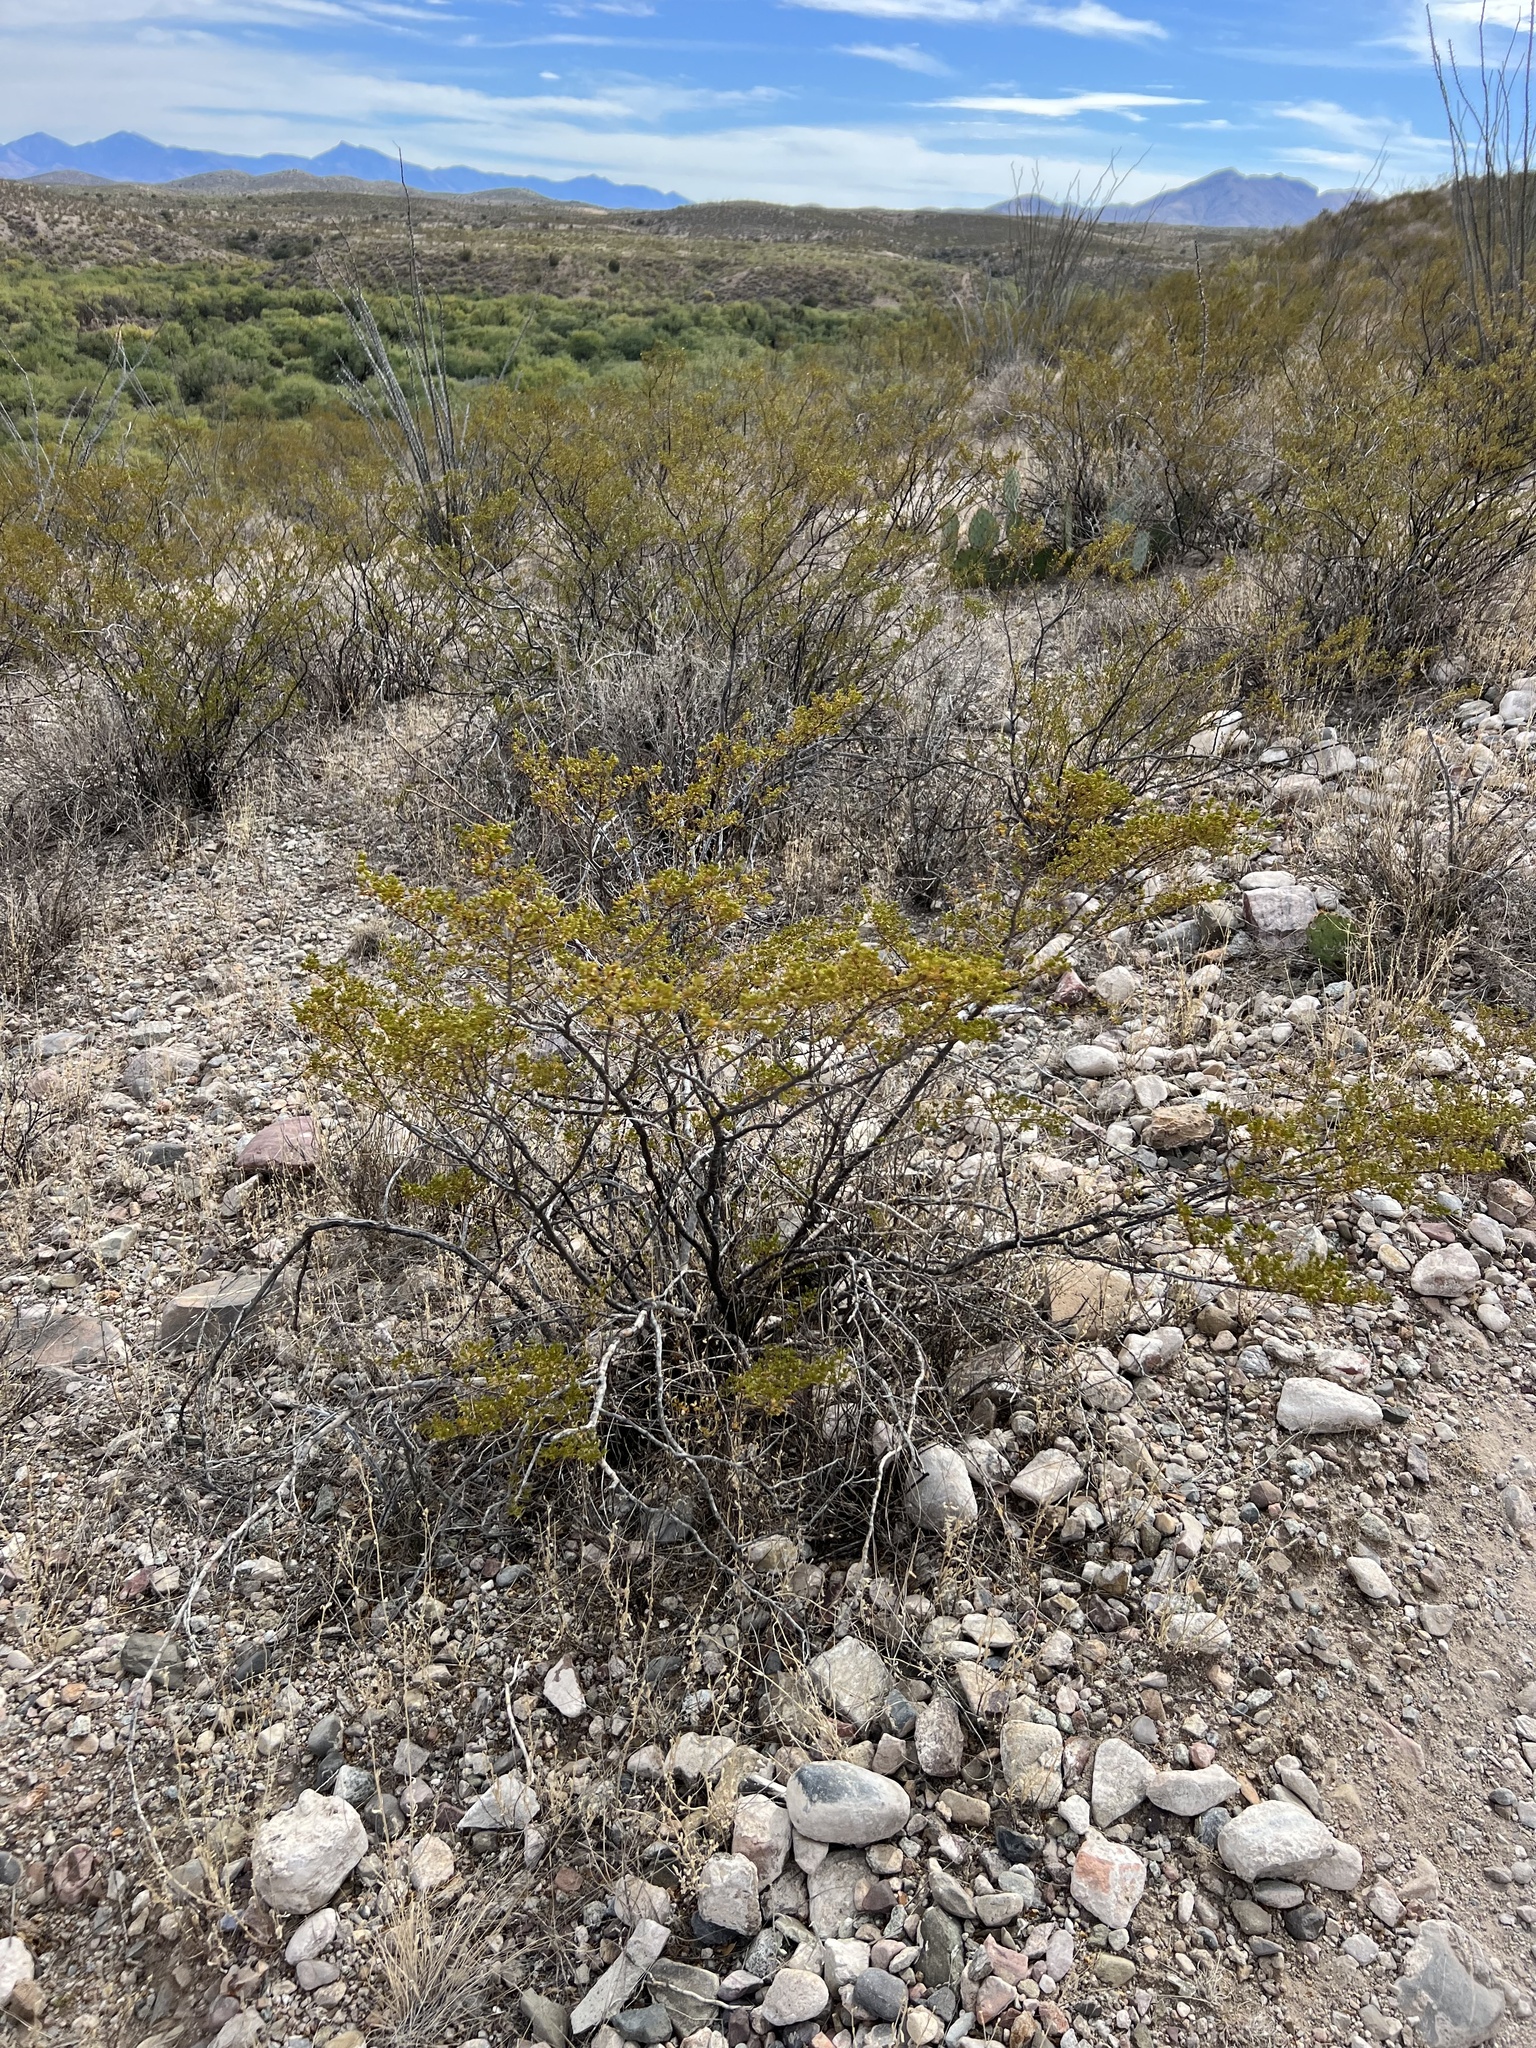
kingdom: Plantae
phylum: Tracheophyta
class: Magnoliopsida
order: Zygophyllales
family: Zygophyllaceae
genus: Larrea
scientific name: Larrea tridentata
